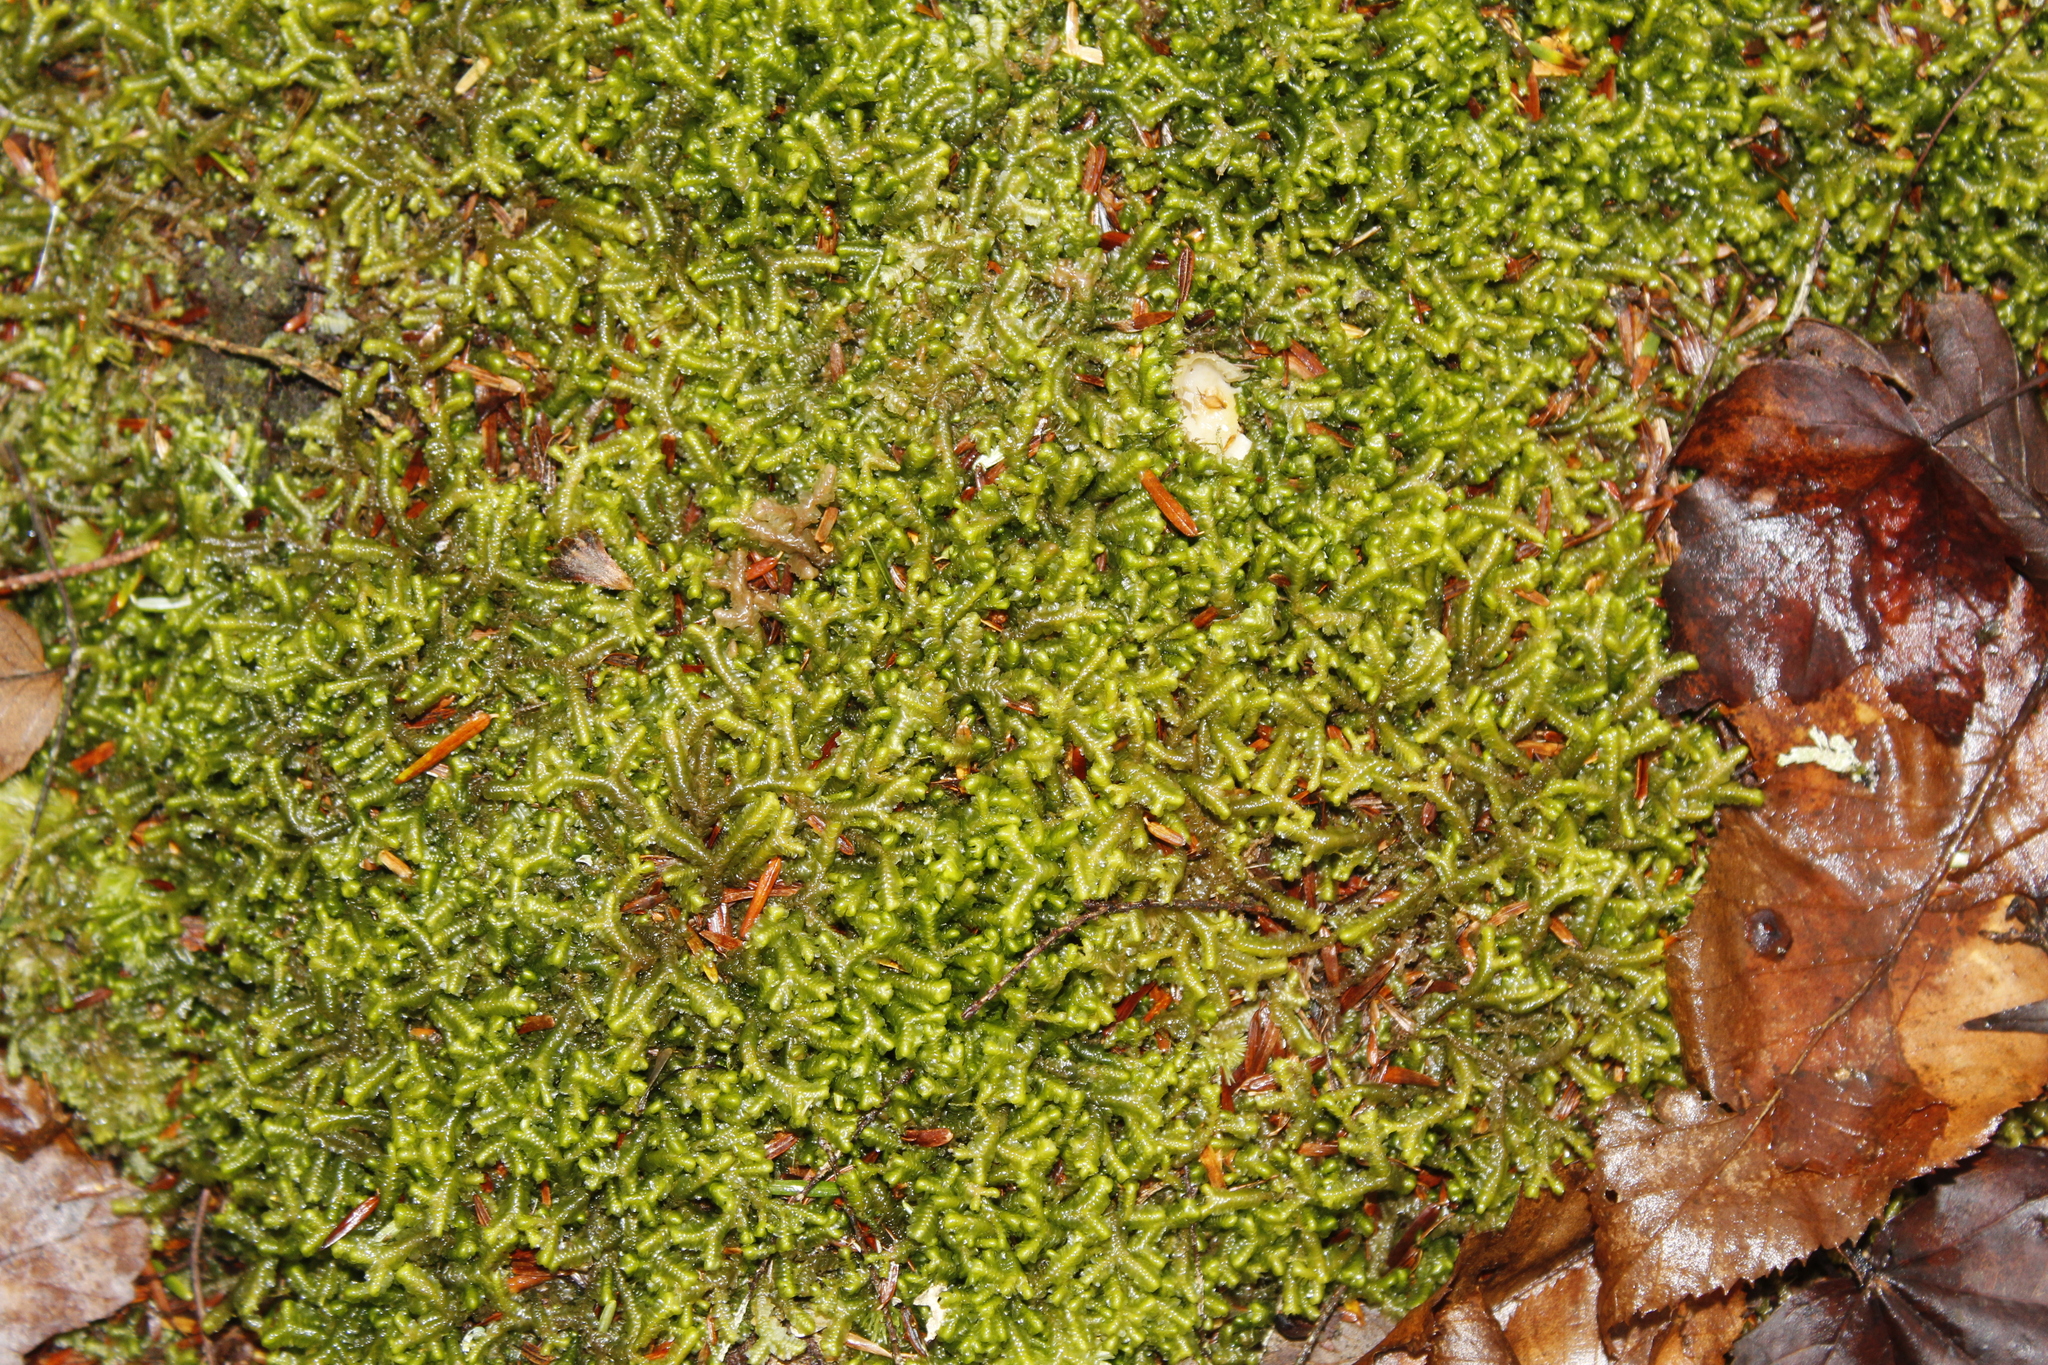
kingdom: Plantae
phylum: Marchantiophyta
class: Jungermanniopsida
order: Jungermanniales
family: Lepidoziaceae
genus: Bazzania
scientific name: Bazzania trilobata
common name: Three-lobed whipwort
